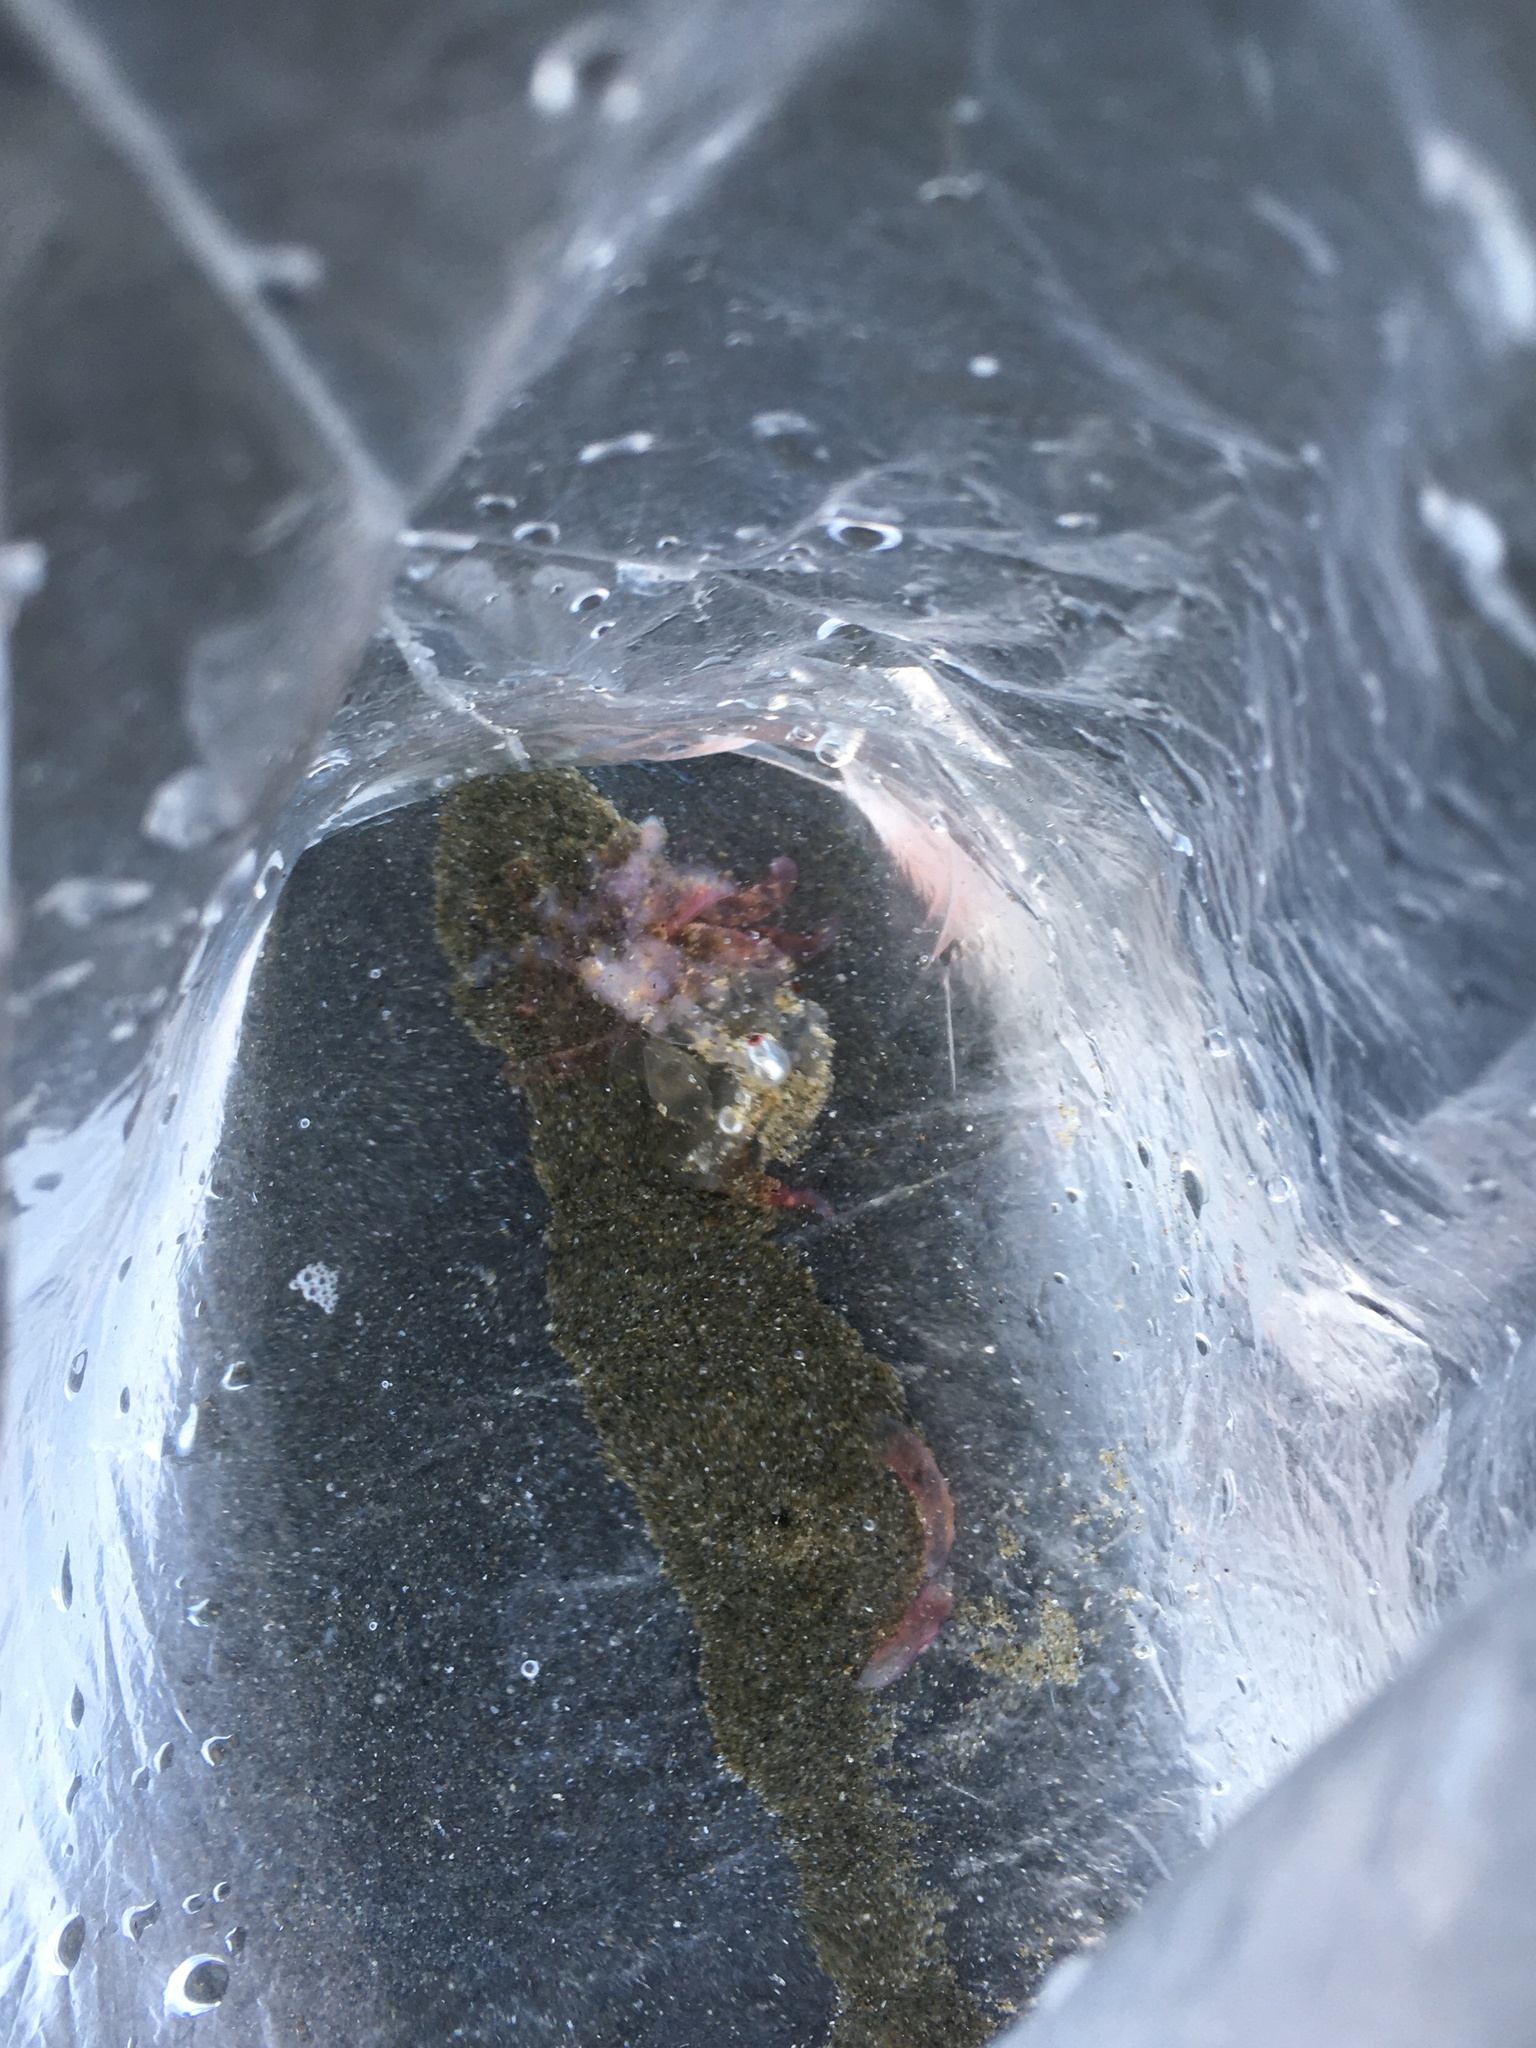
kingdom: Animalia
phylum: Cnidaria
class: Hydrozoa
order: Siphonophorae
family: Physophoridae
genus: Physophora
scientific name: Physophora hydrostatica
